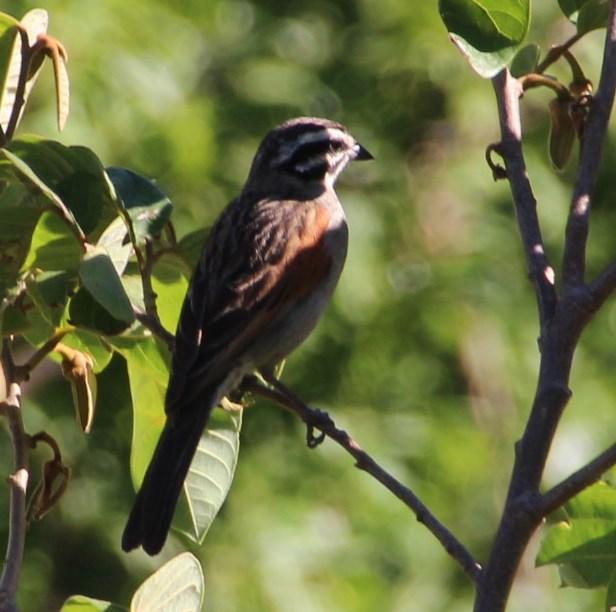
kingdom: Animalia
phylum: Chordata
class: Aves
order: Passeriformes
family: Emberizidae
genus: Emberiza
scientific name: Emberiza capensis
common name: Cape bunting
